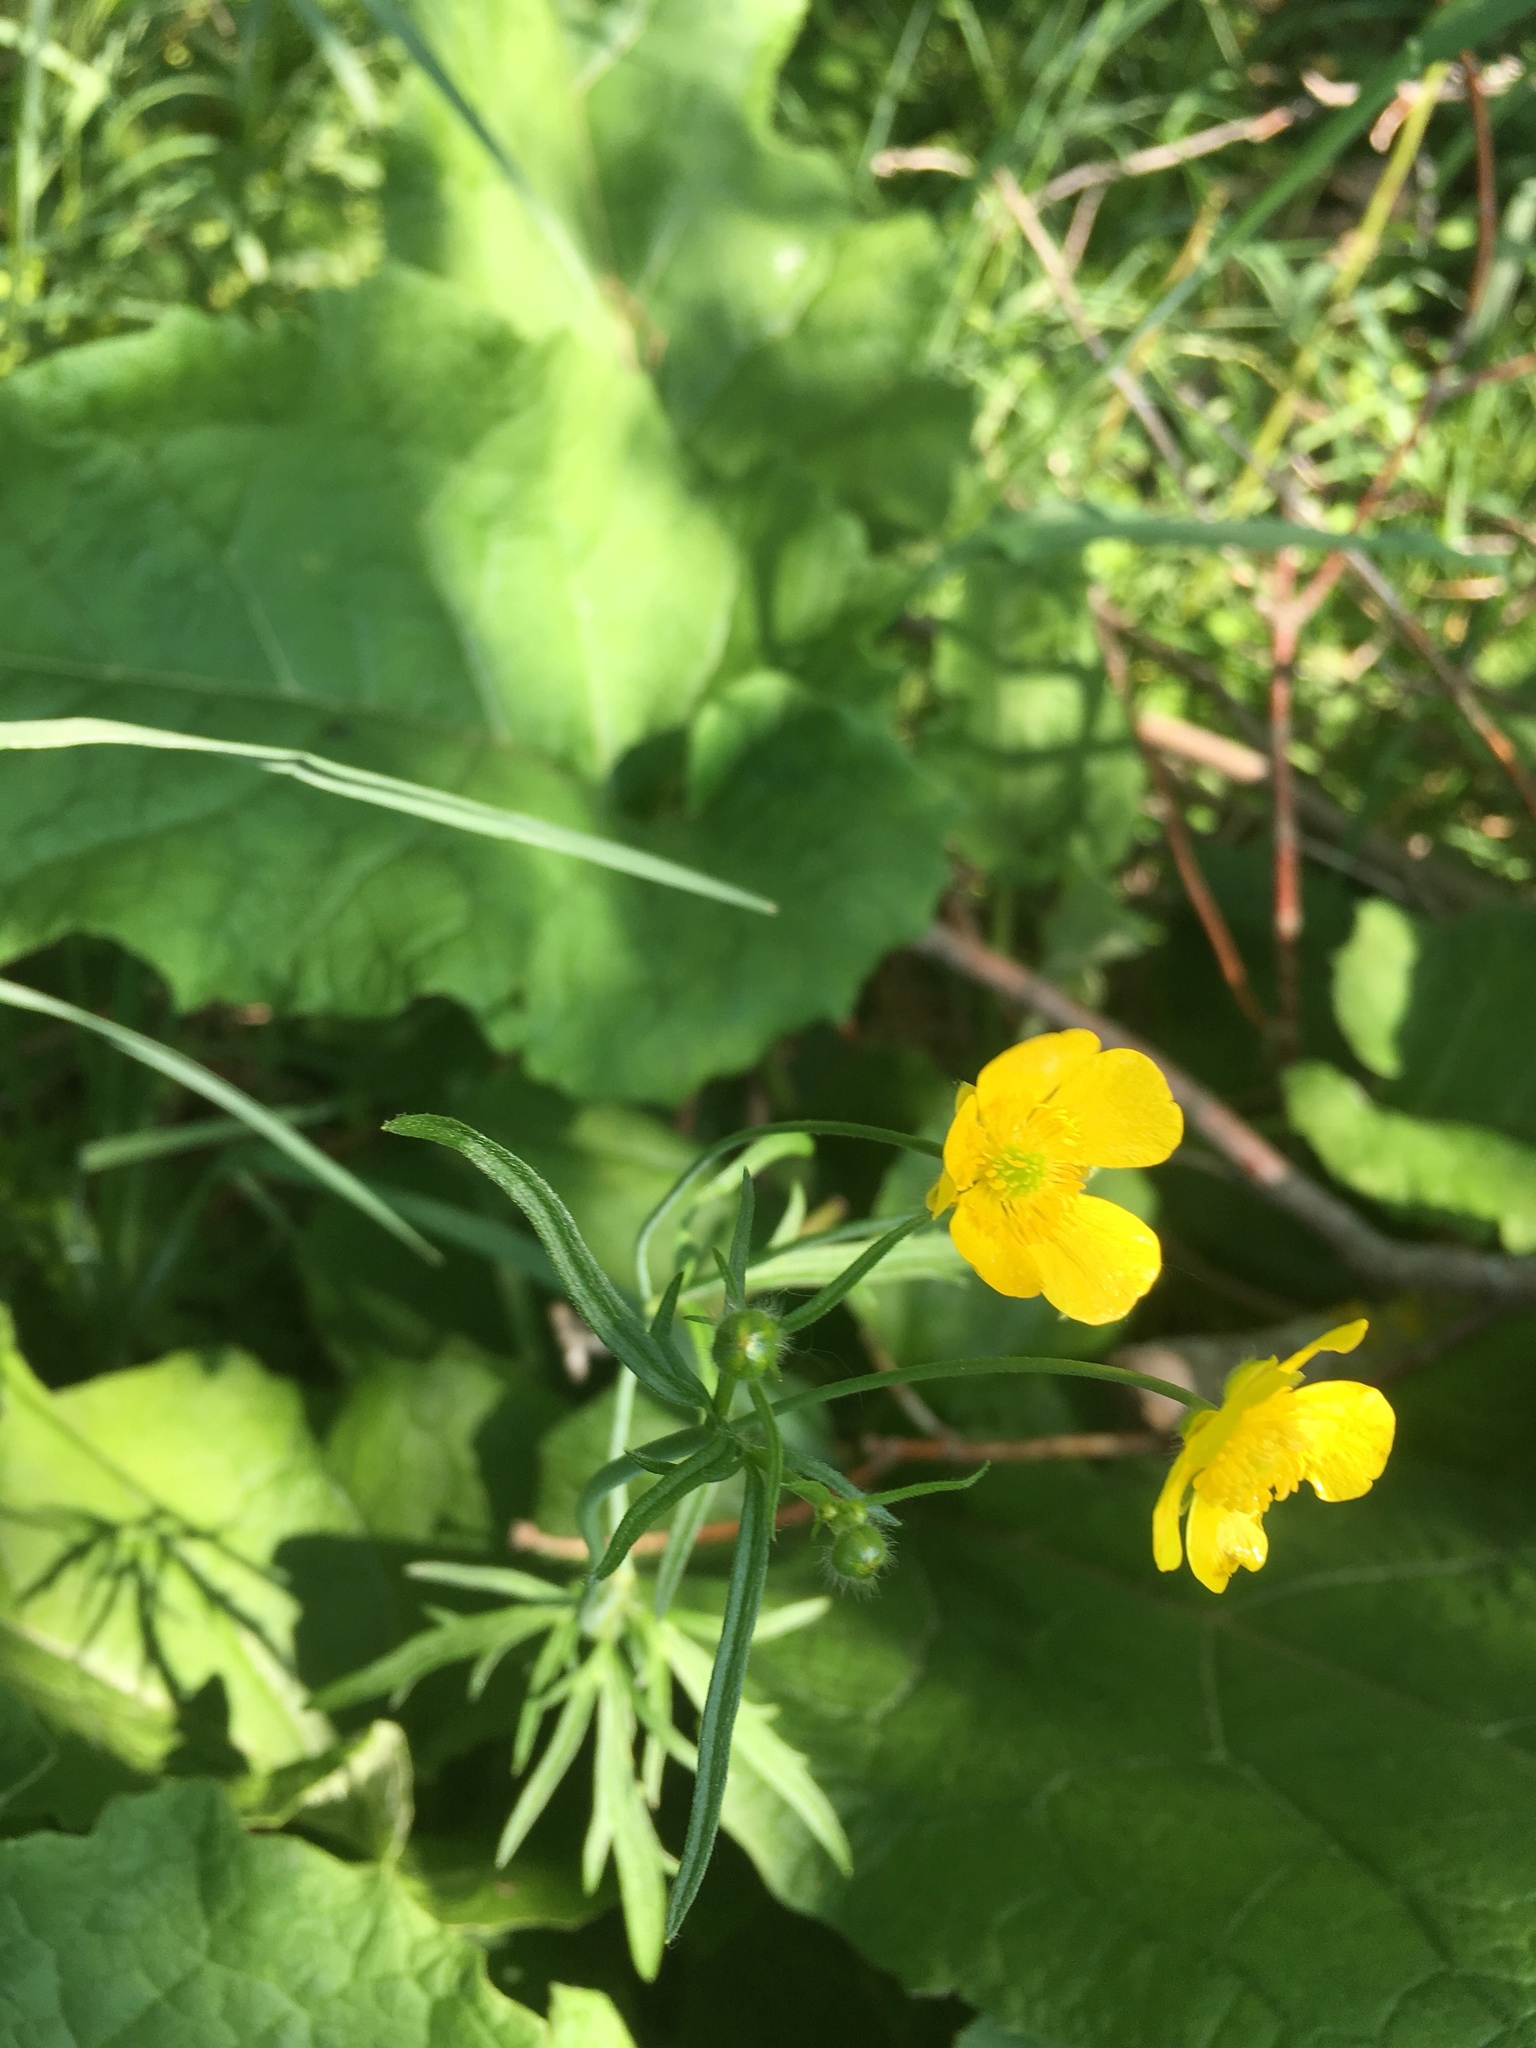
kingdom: Plantae
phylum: Tracheophyta
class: Magnoliopsida
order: Ranunculales
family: Ranunculaceae
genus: Ranunculus
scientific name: Ranunculus acris
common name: Meadow buttercup
